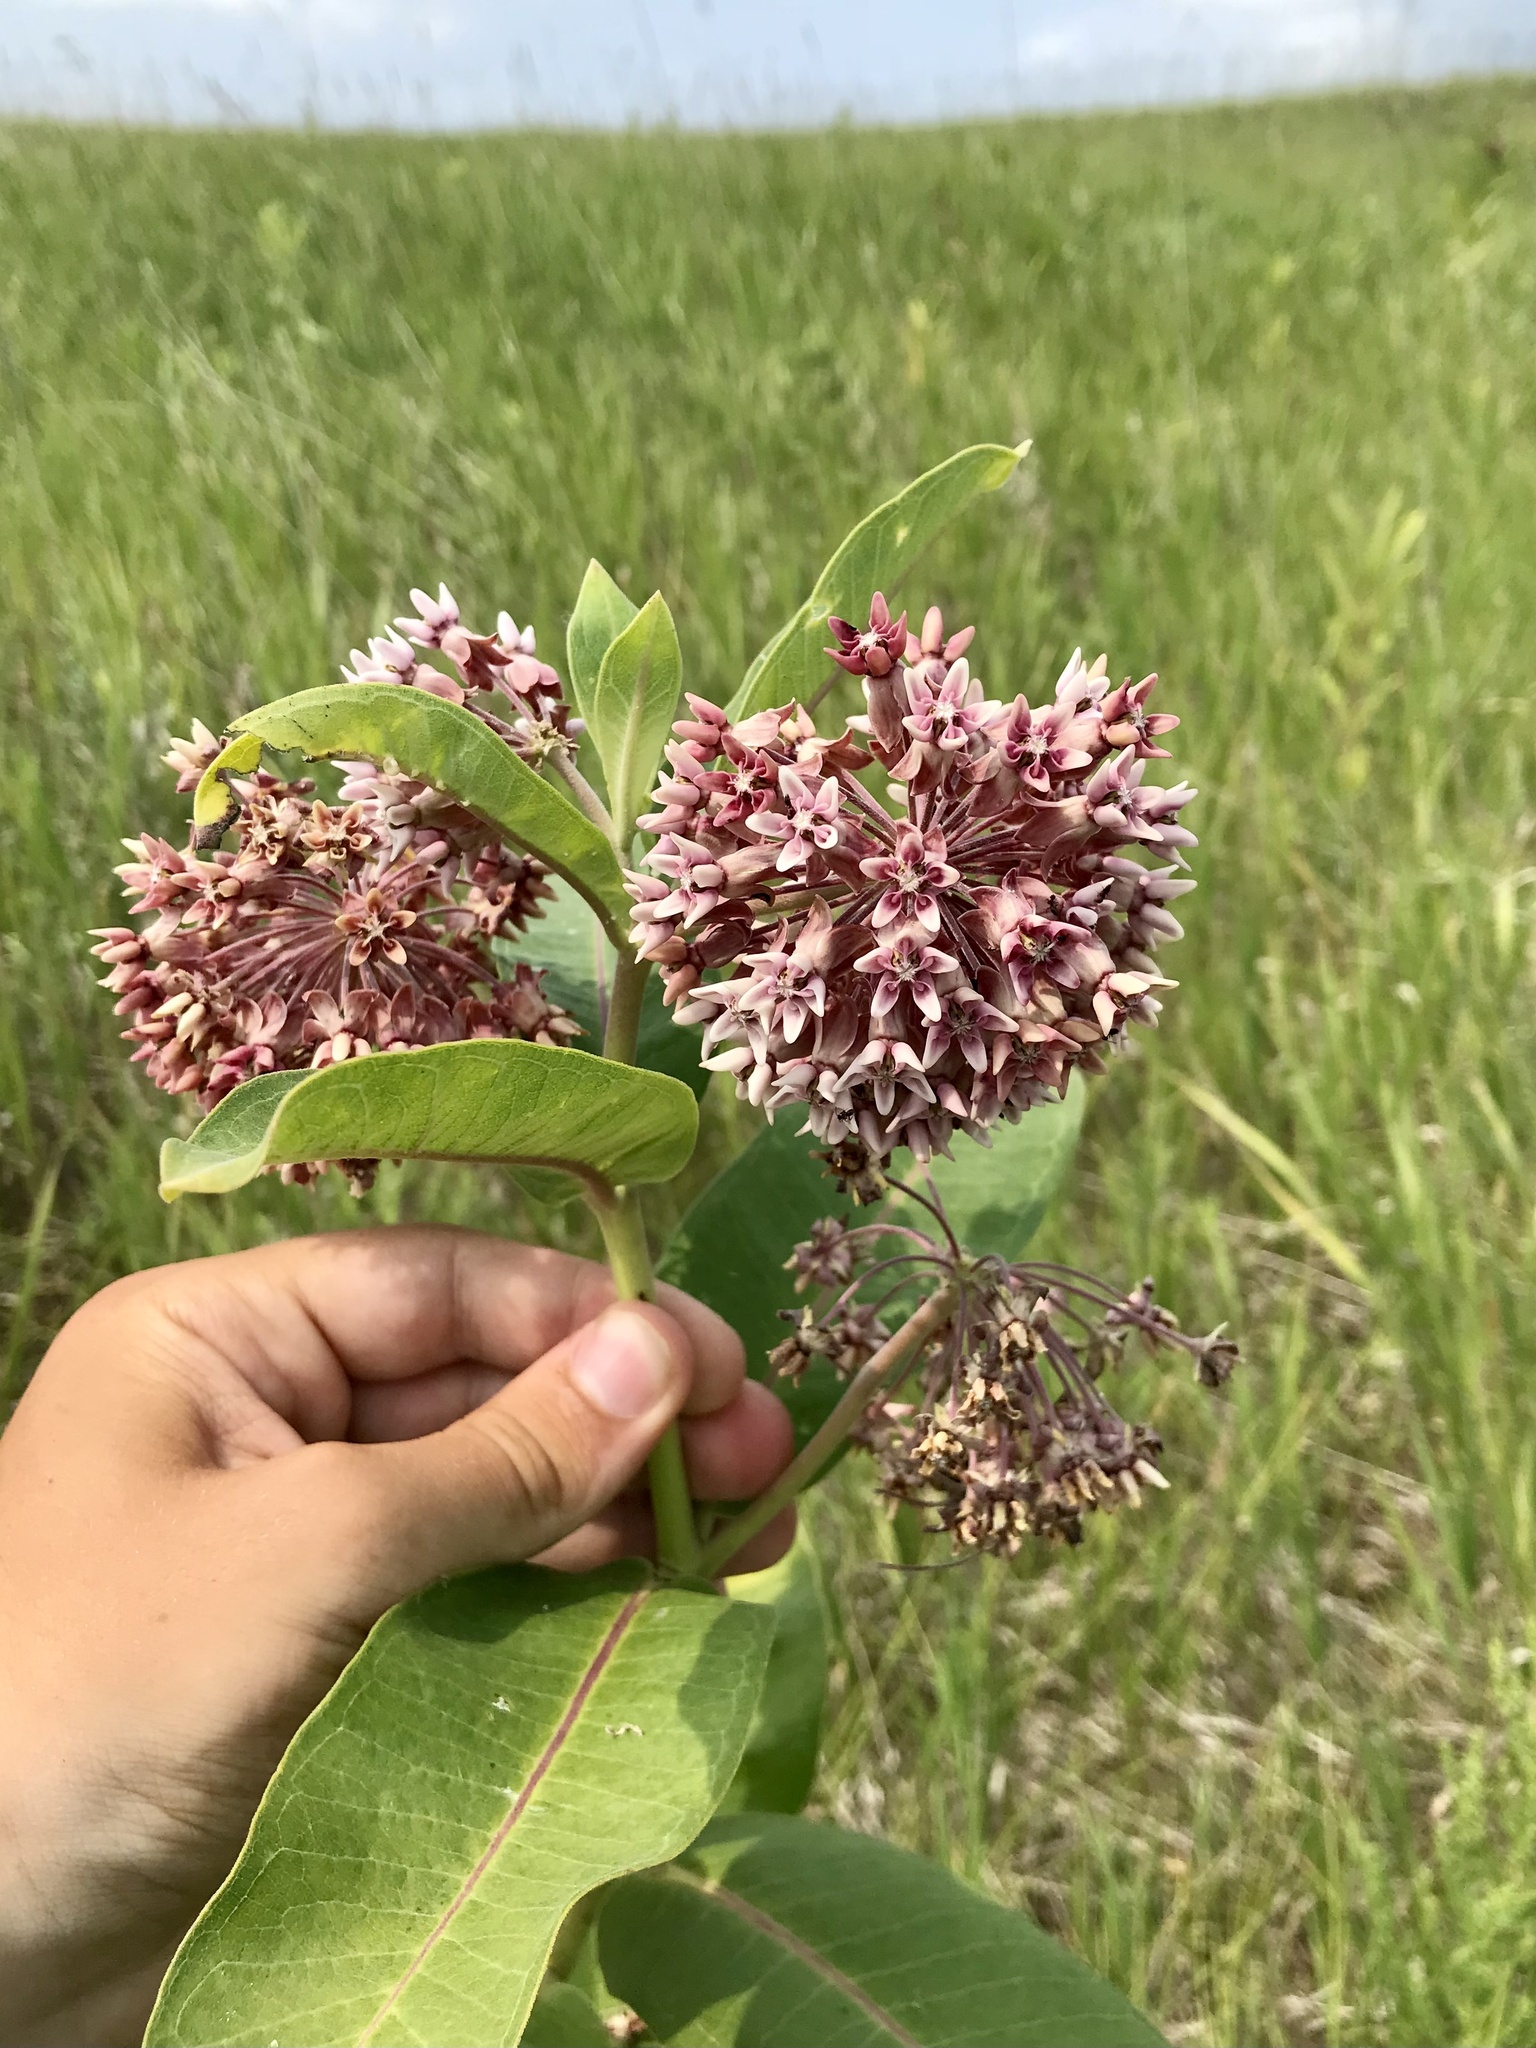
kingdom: Plantae
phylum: Tracheophyta
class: Magnoliopsida
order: Gentianales
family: Apocynaceae
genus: Asclepias
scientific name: Asclepias syriaca
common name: Common milkweed
